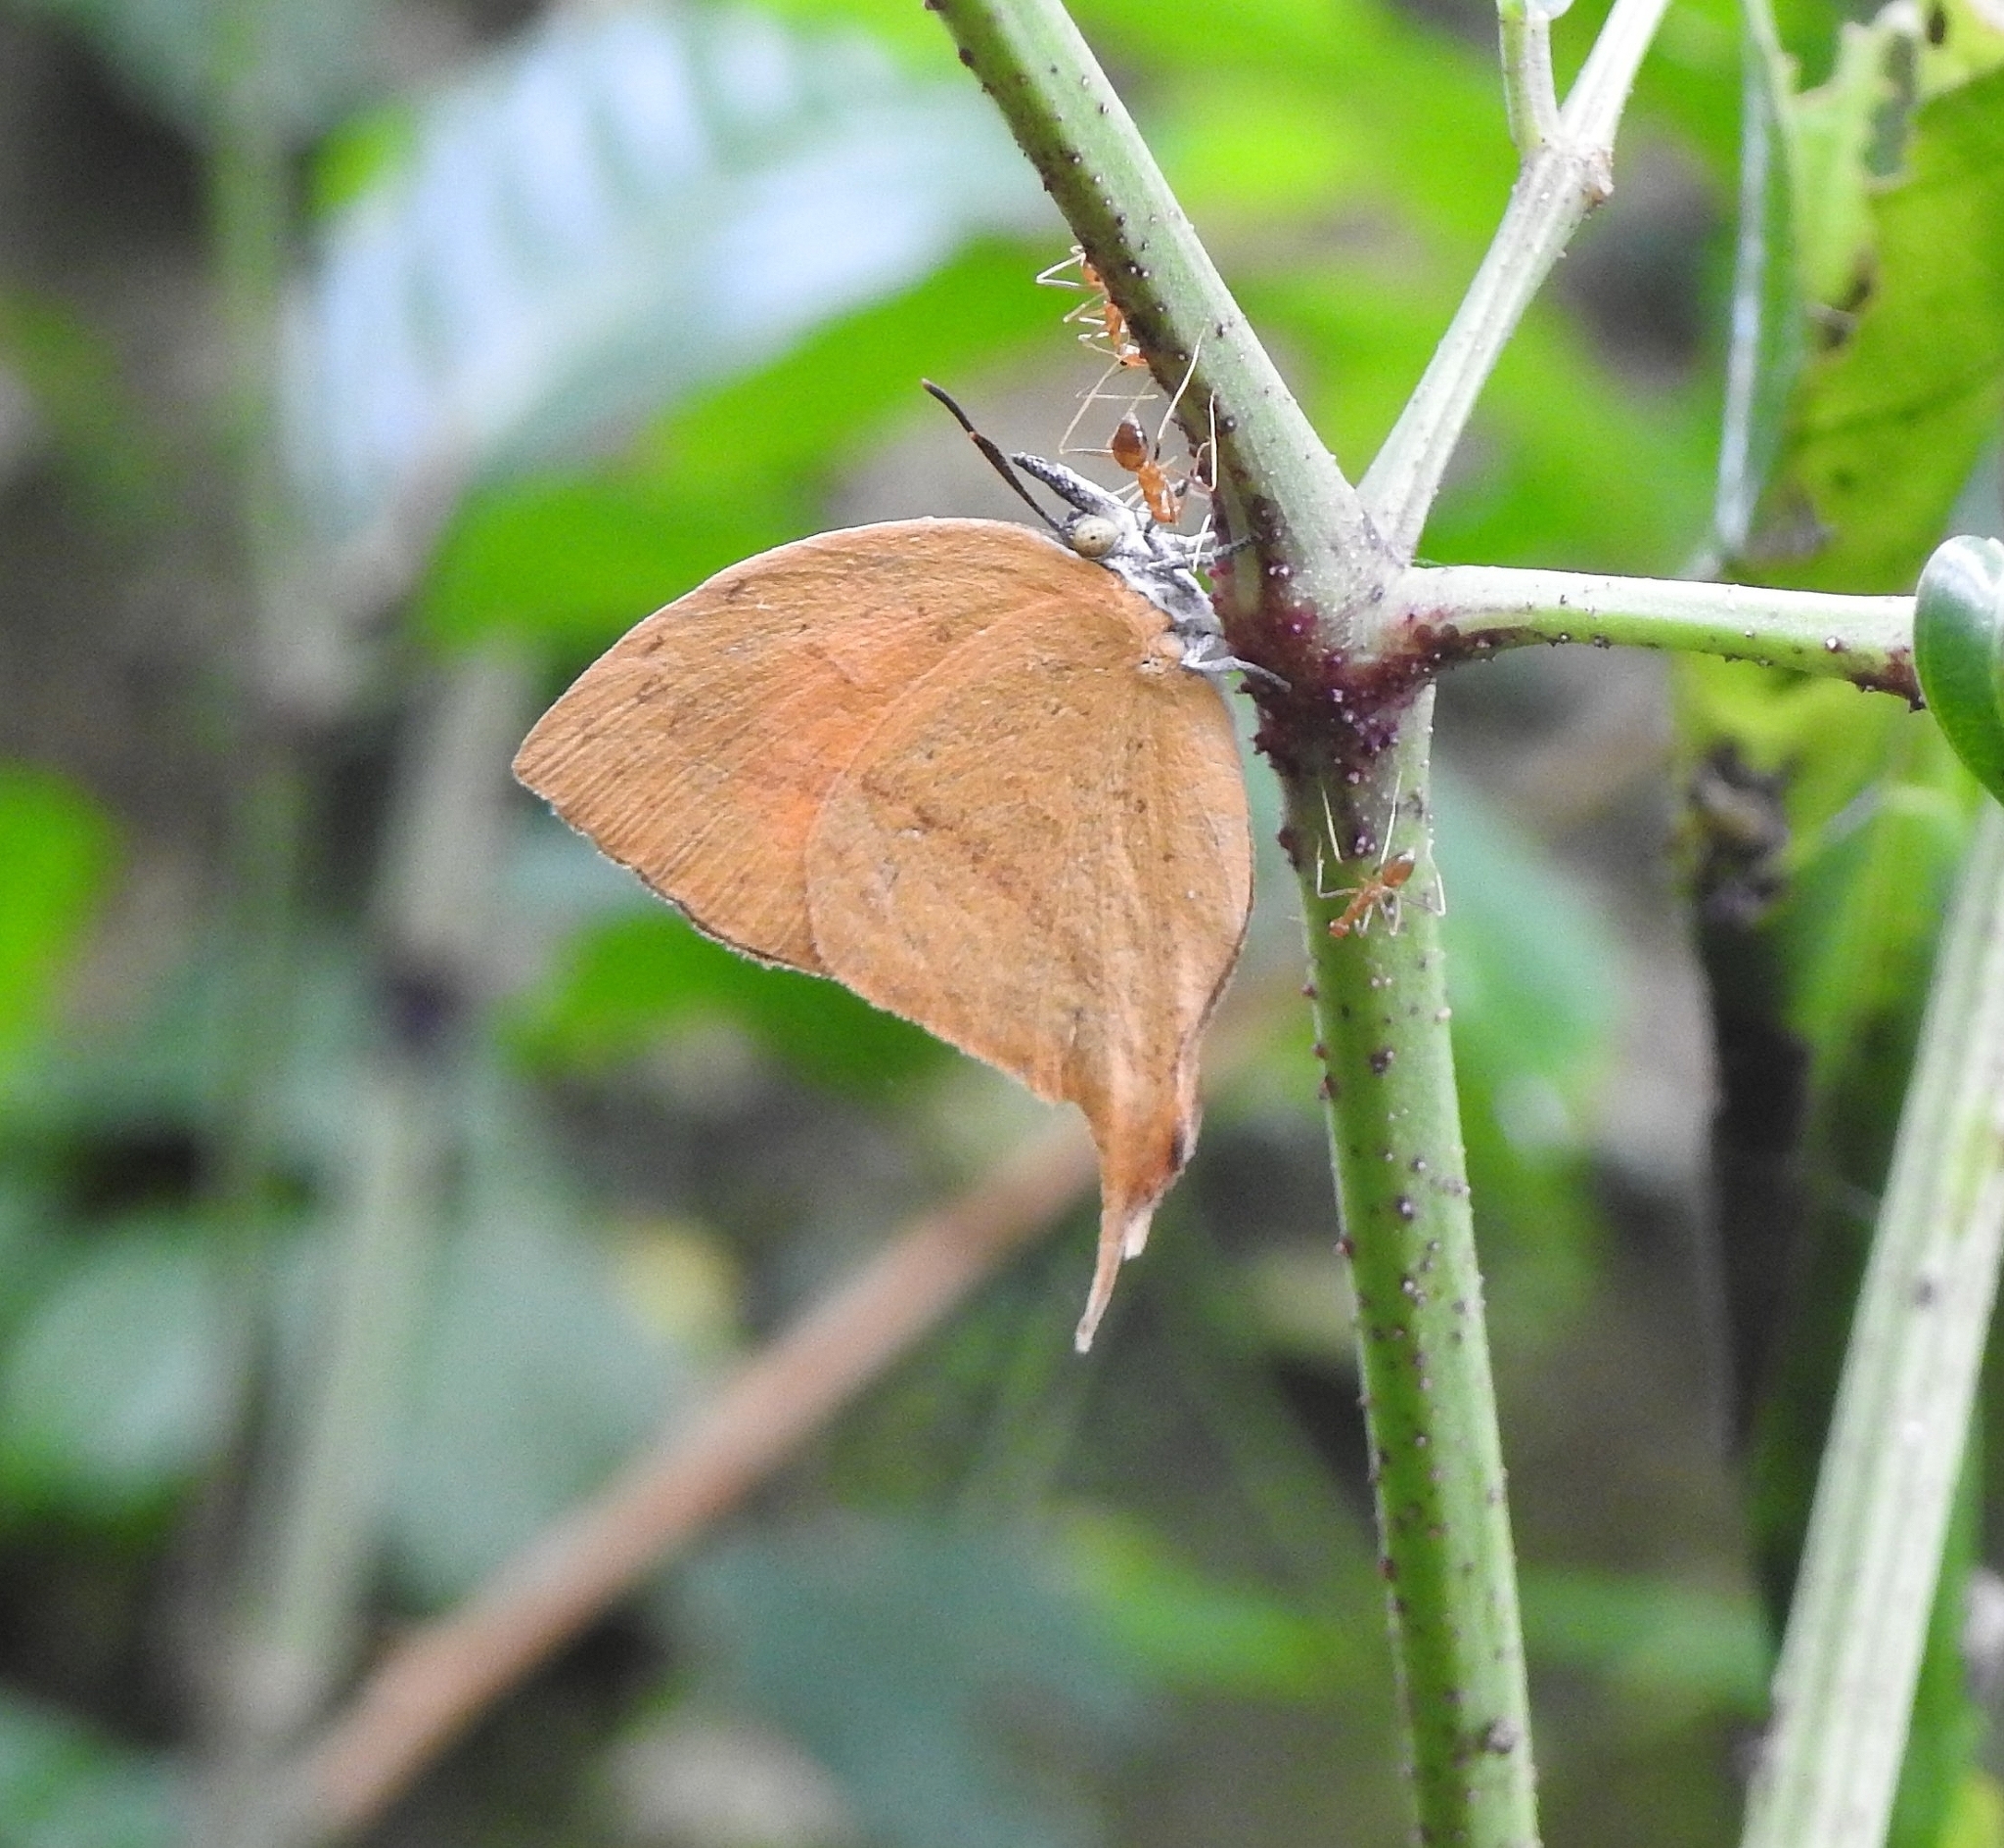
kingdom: Animalia
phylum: Arthropoda
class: Insecta
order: Lepidoptera
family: Lycaenidae
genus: Loxura
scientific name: Loxura atymnus
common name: Common yamfly
